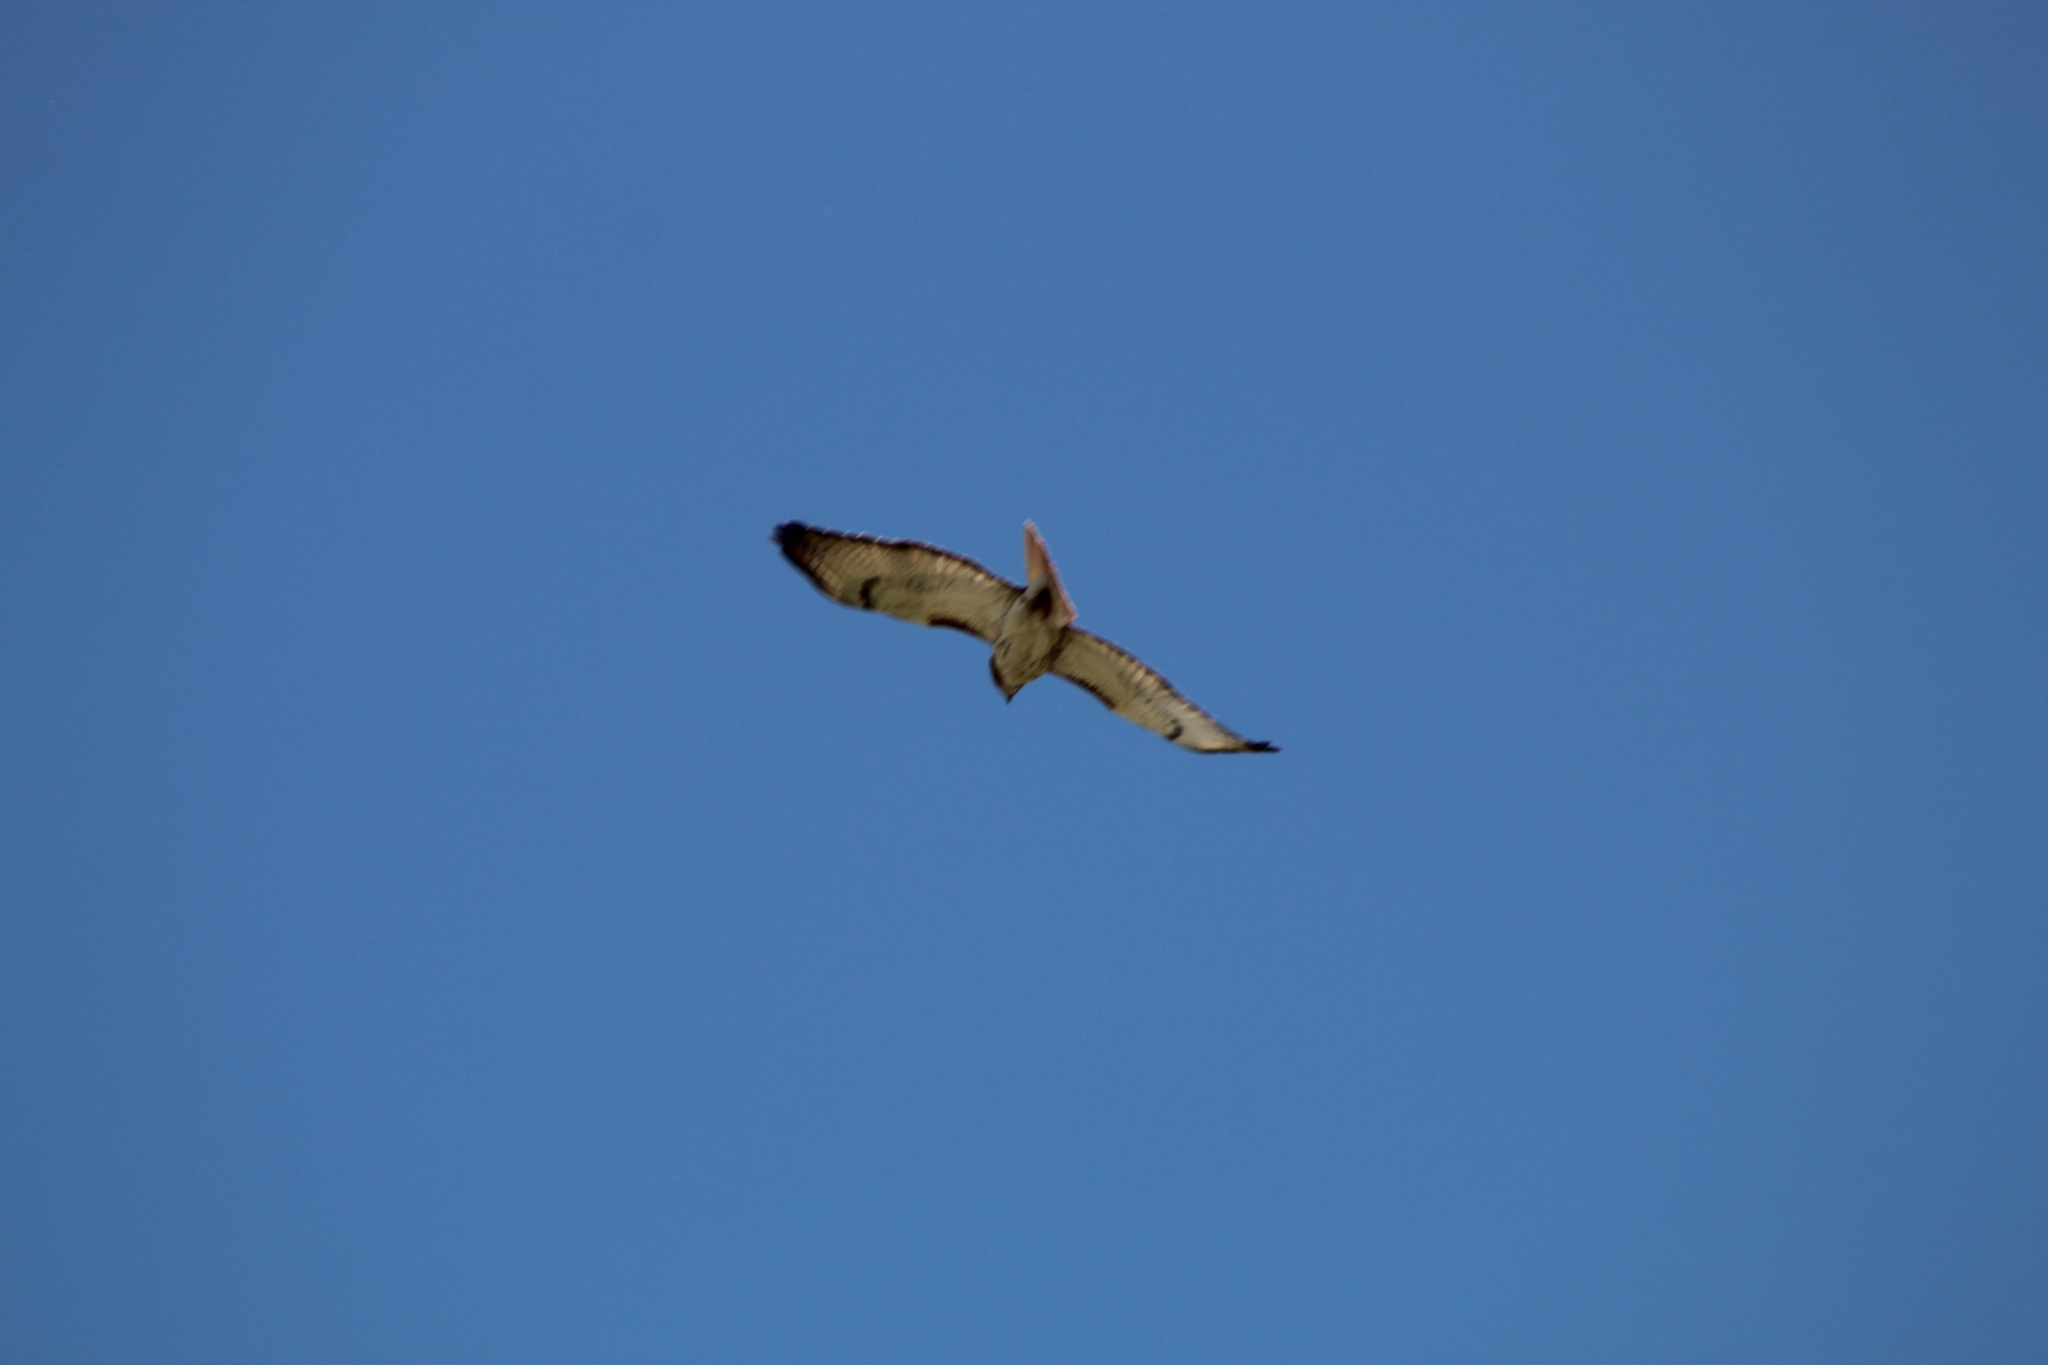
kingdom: Animalia
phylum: Chordata
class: Aves
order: Accipitriformes
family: Accipitridae
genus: Buteo
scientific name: Buteo jamaicensis
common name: Red-tailed hawk
